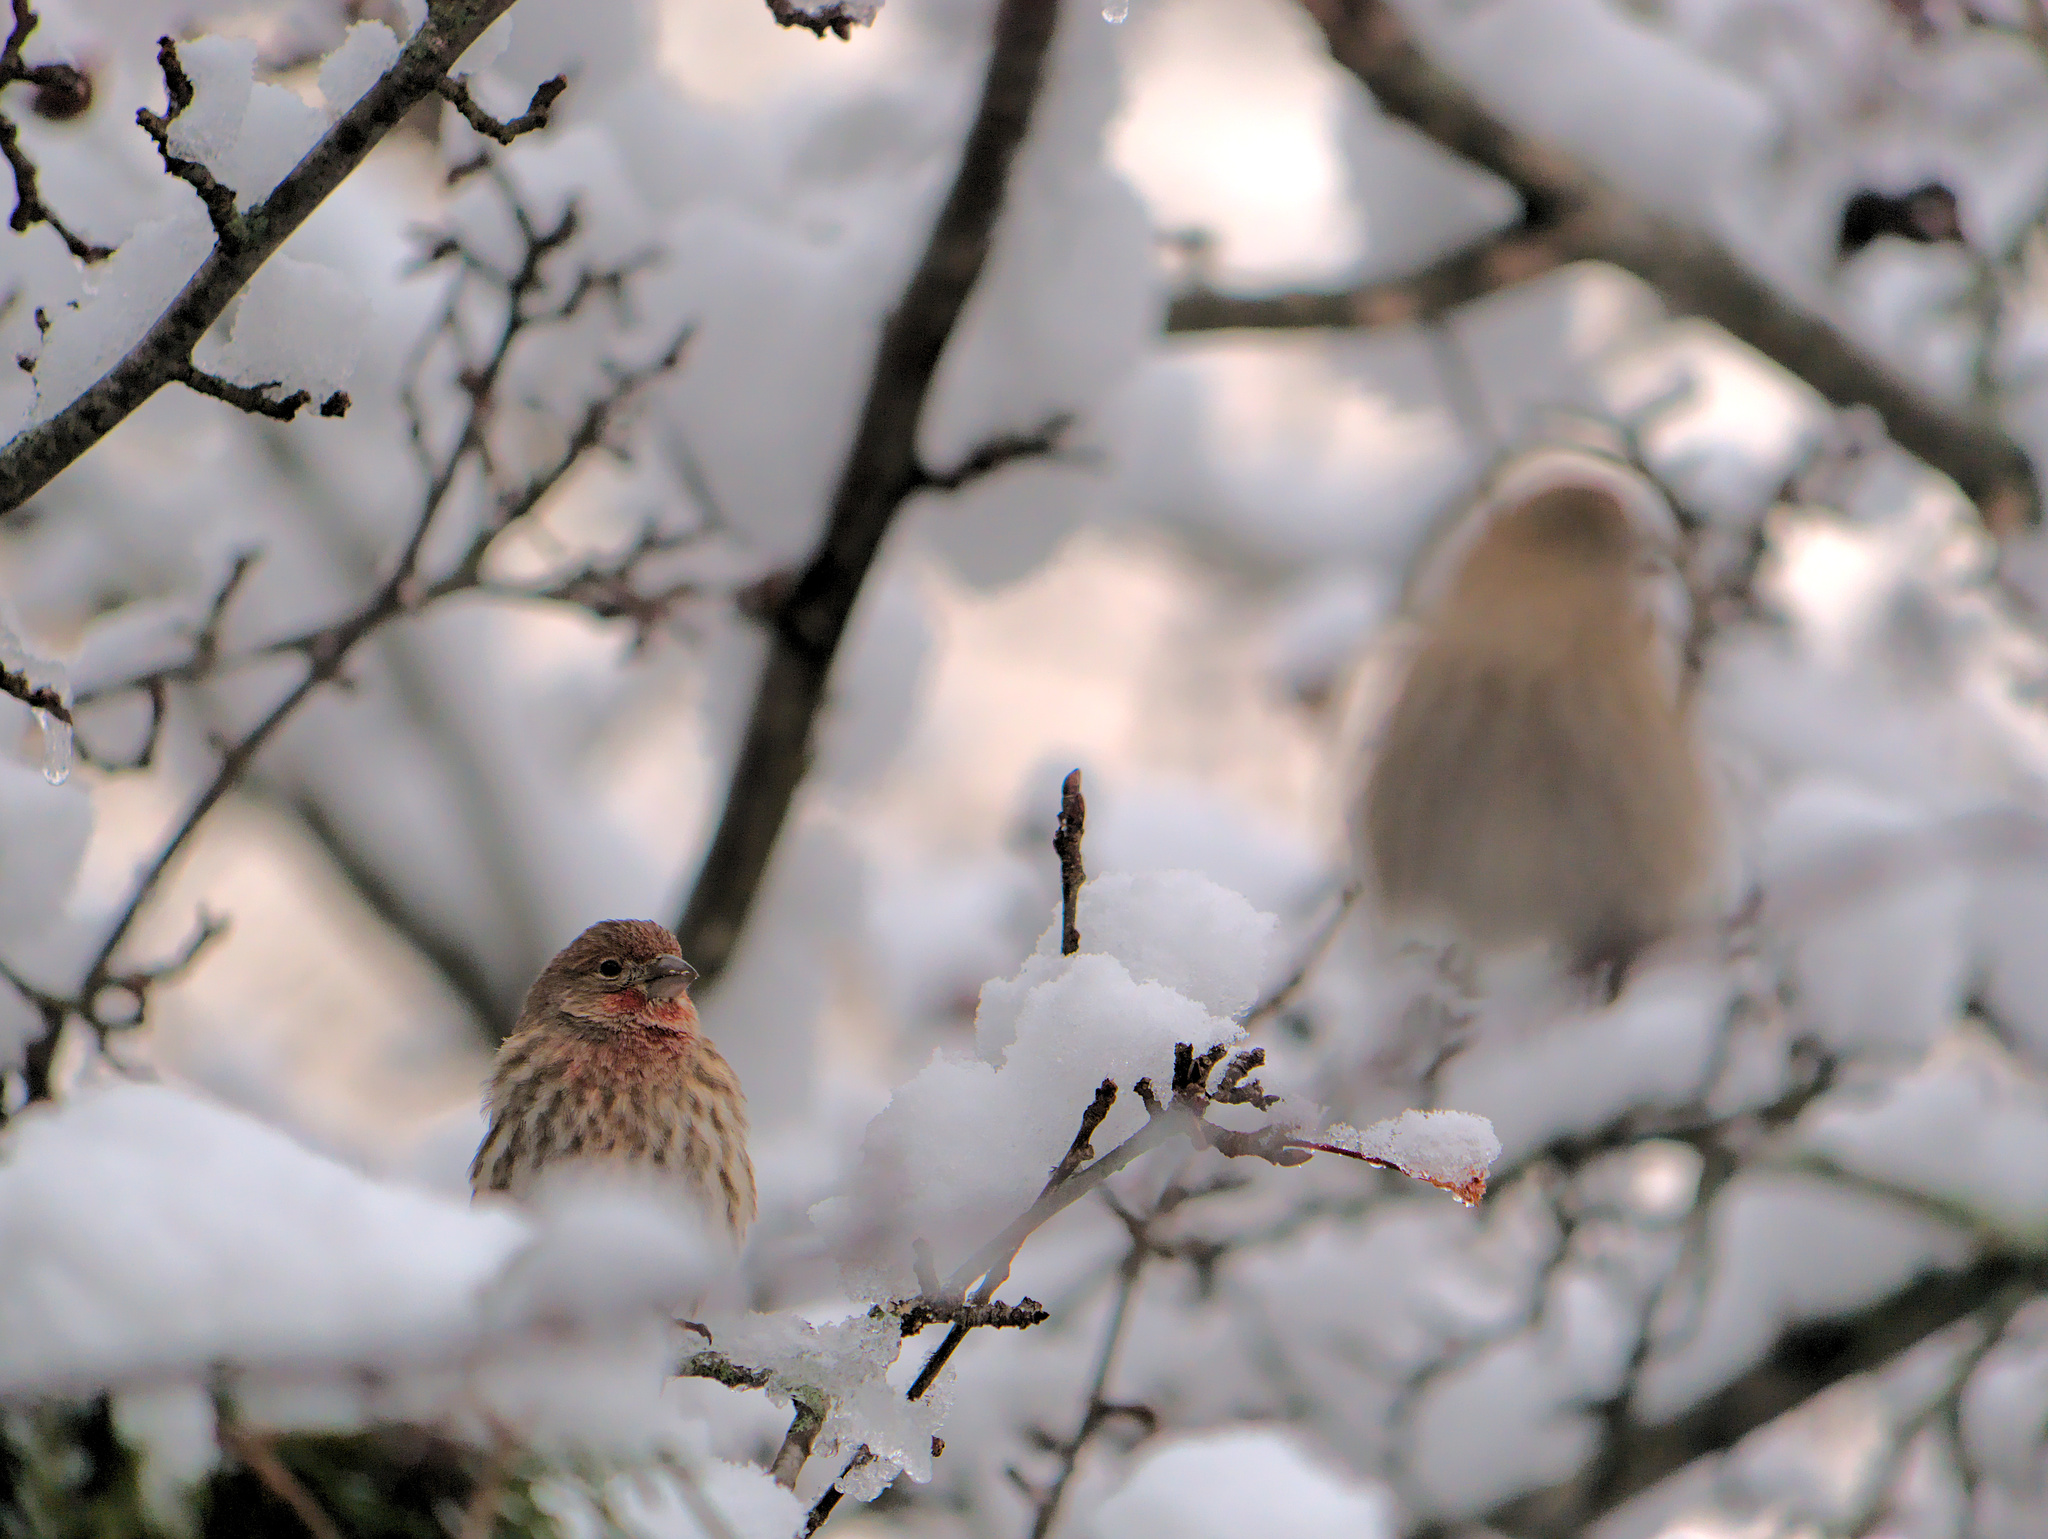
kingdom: Animalia
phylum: Chordata
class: Aves
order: Passeriformes
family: Fringillidae
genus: Haemorhous
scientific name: Haemorhous mexicanus
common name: House finch
